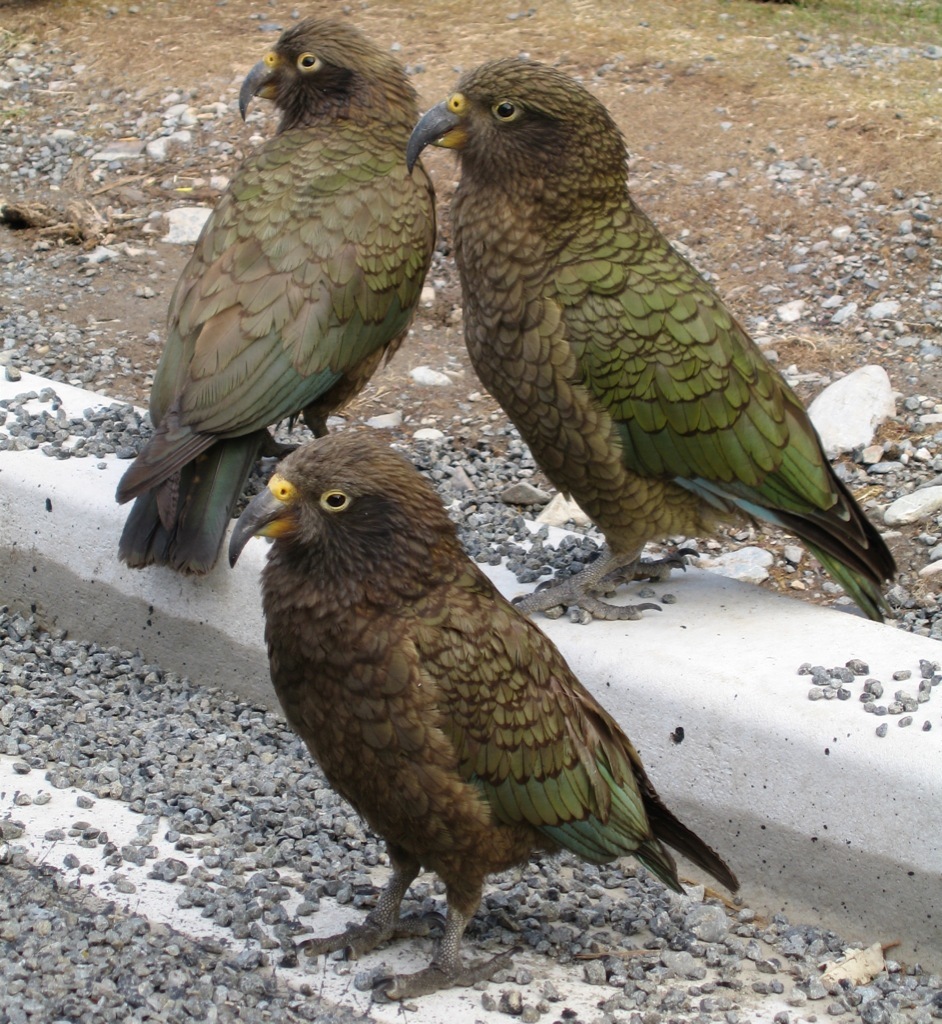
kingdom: Animalia
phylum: Chordata
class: Aves
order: Psittaciformes
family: Psittacidae
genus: Nestor
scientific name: Nestor notabilis
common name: Kea
